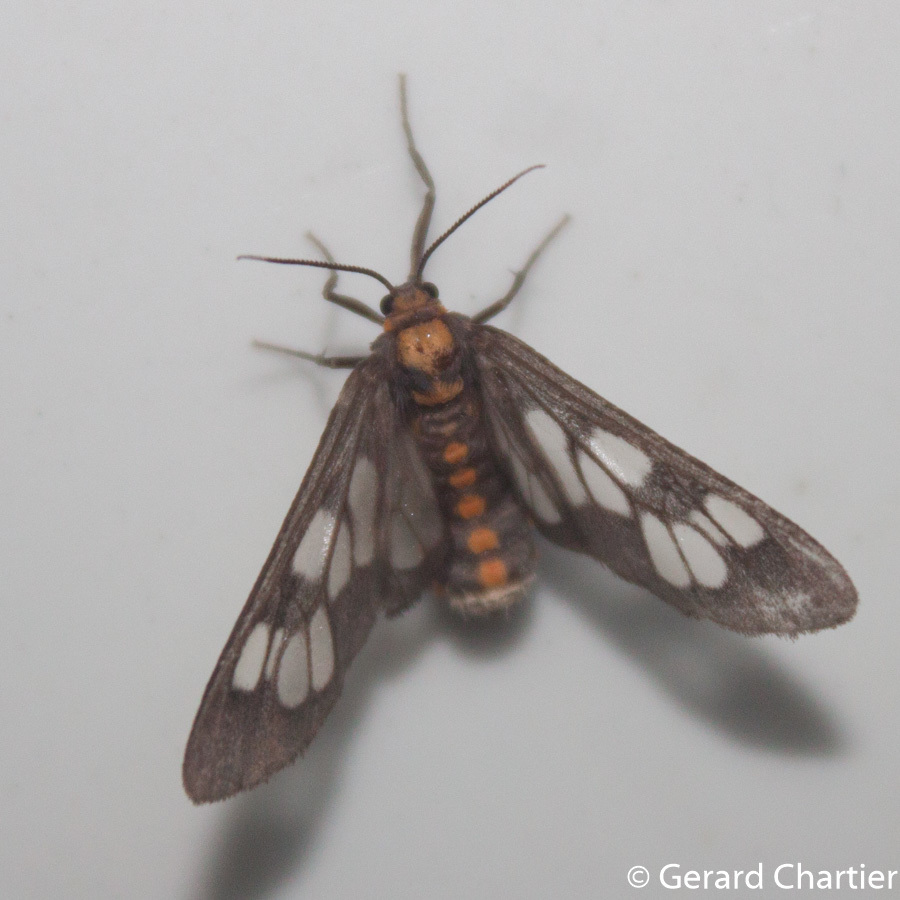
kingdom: Animalia
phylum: Arthropoda
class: Insecta
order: Lepidoptera
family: Erebidae
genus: Eressa
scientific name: Eressa confinis
